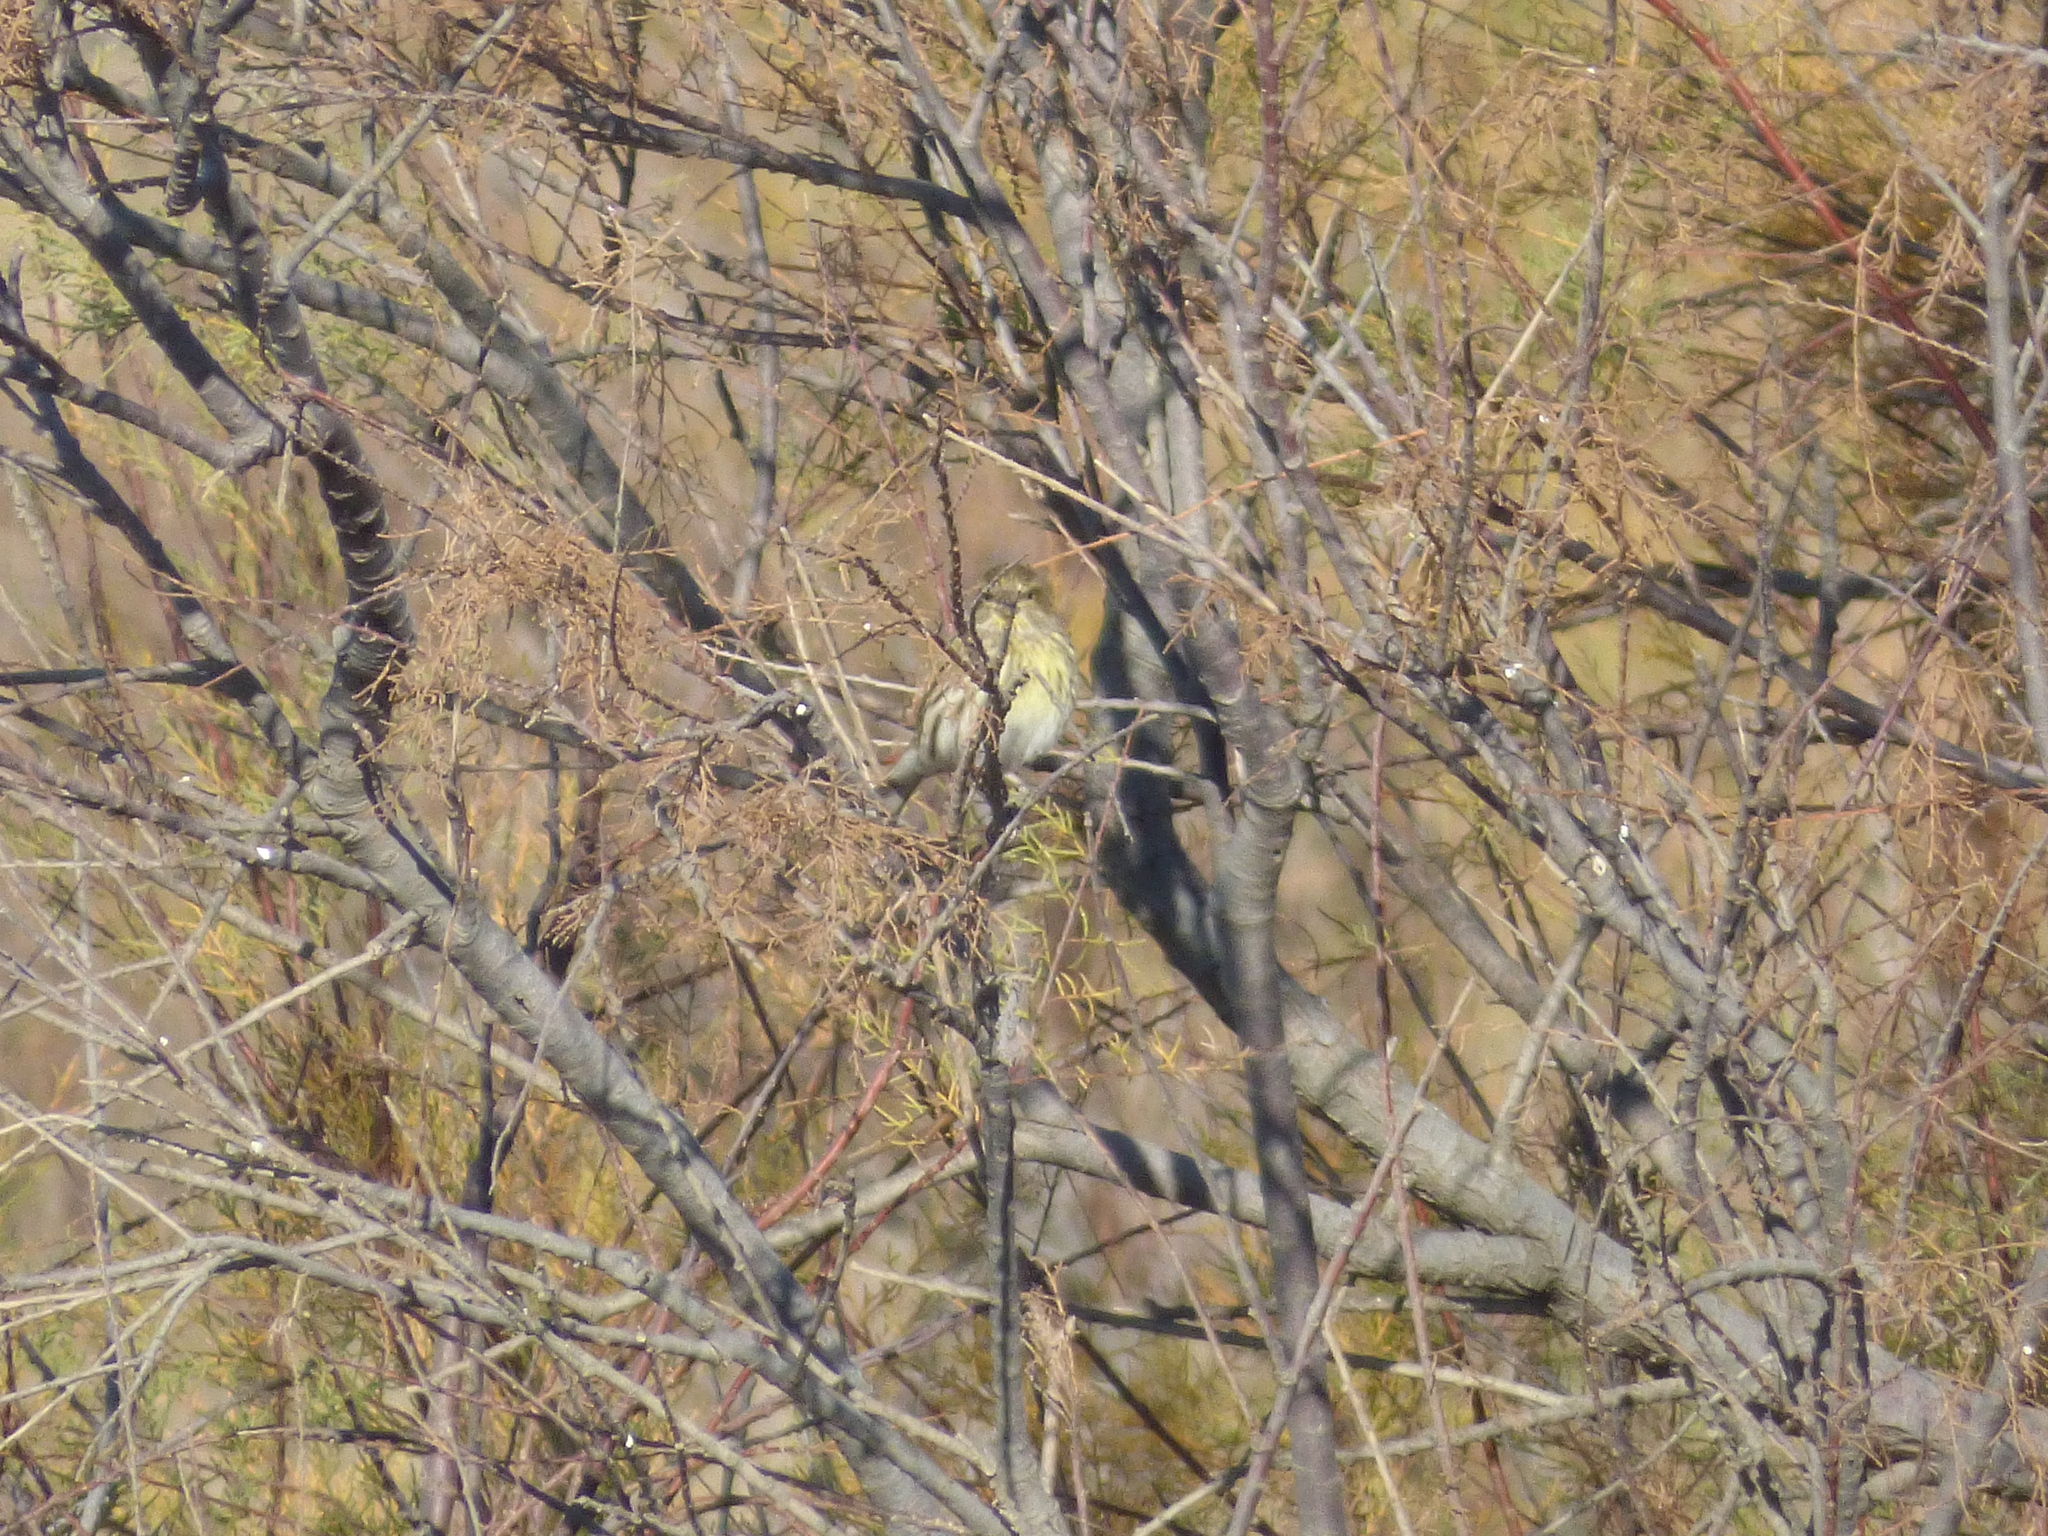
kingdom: Animalia
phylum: Chordata
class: Aves
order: Passeriformes
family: Fringillidae
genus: Serinus
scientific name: Serinus serinus
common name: European serin
